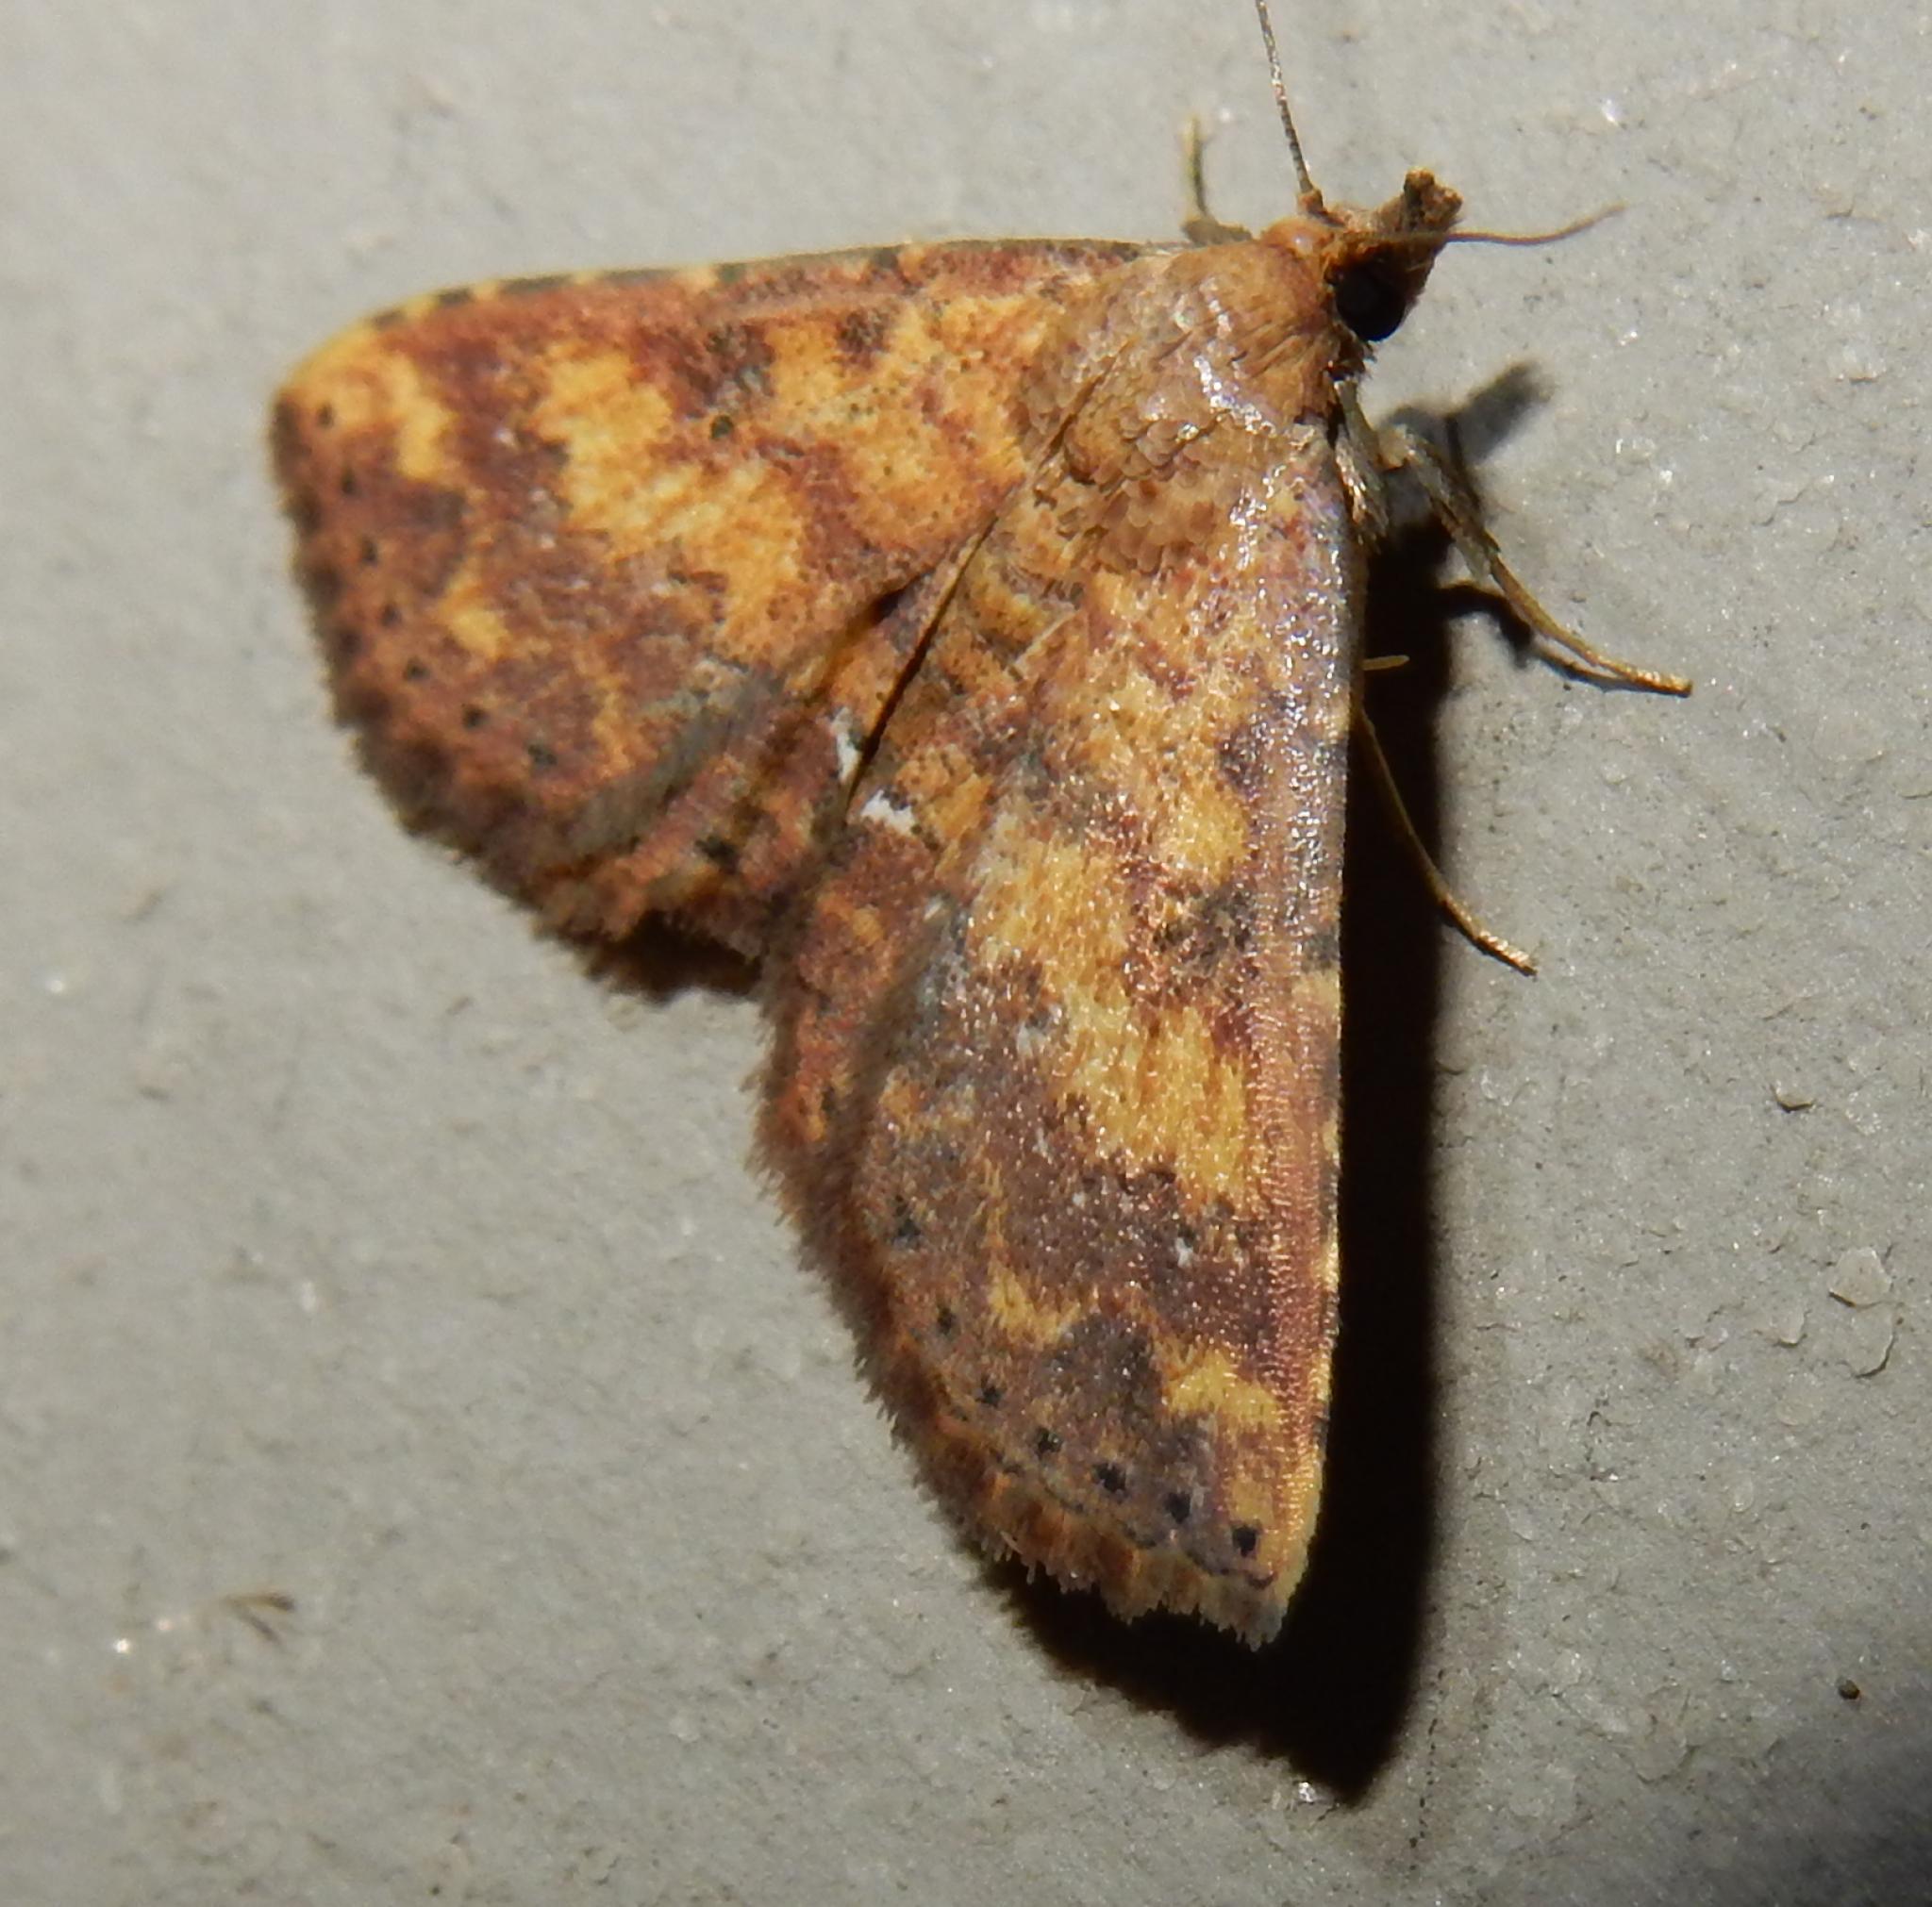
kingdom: Animalia
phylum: Arthropoda
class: Insecta
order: Lepidoptera
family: Noctuidae
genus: Cerynea
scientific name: Cerynea thermesialis
